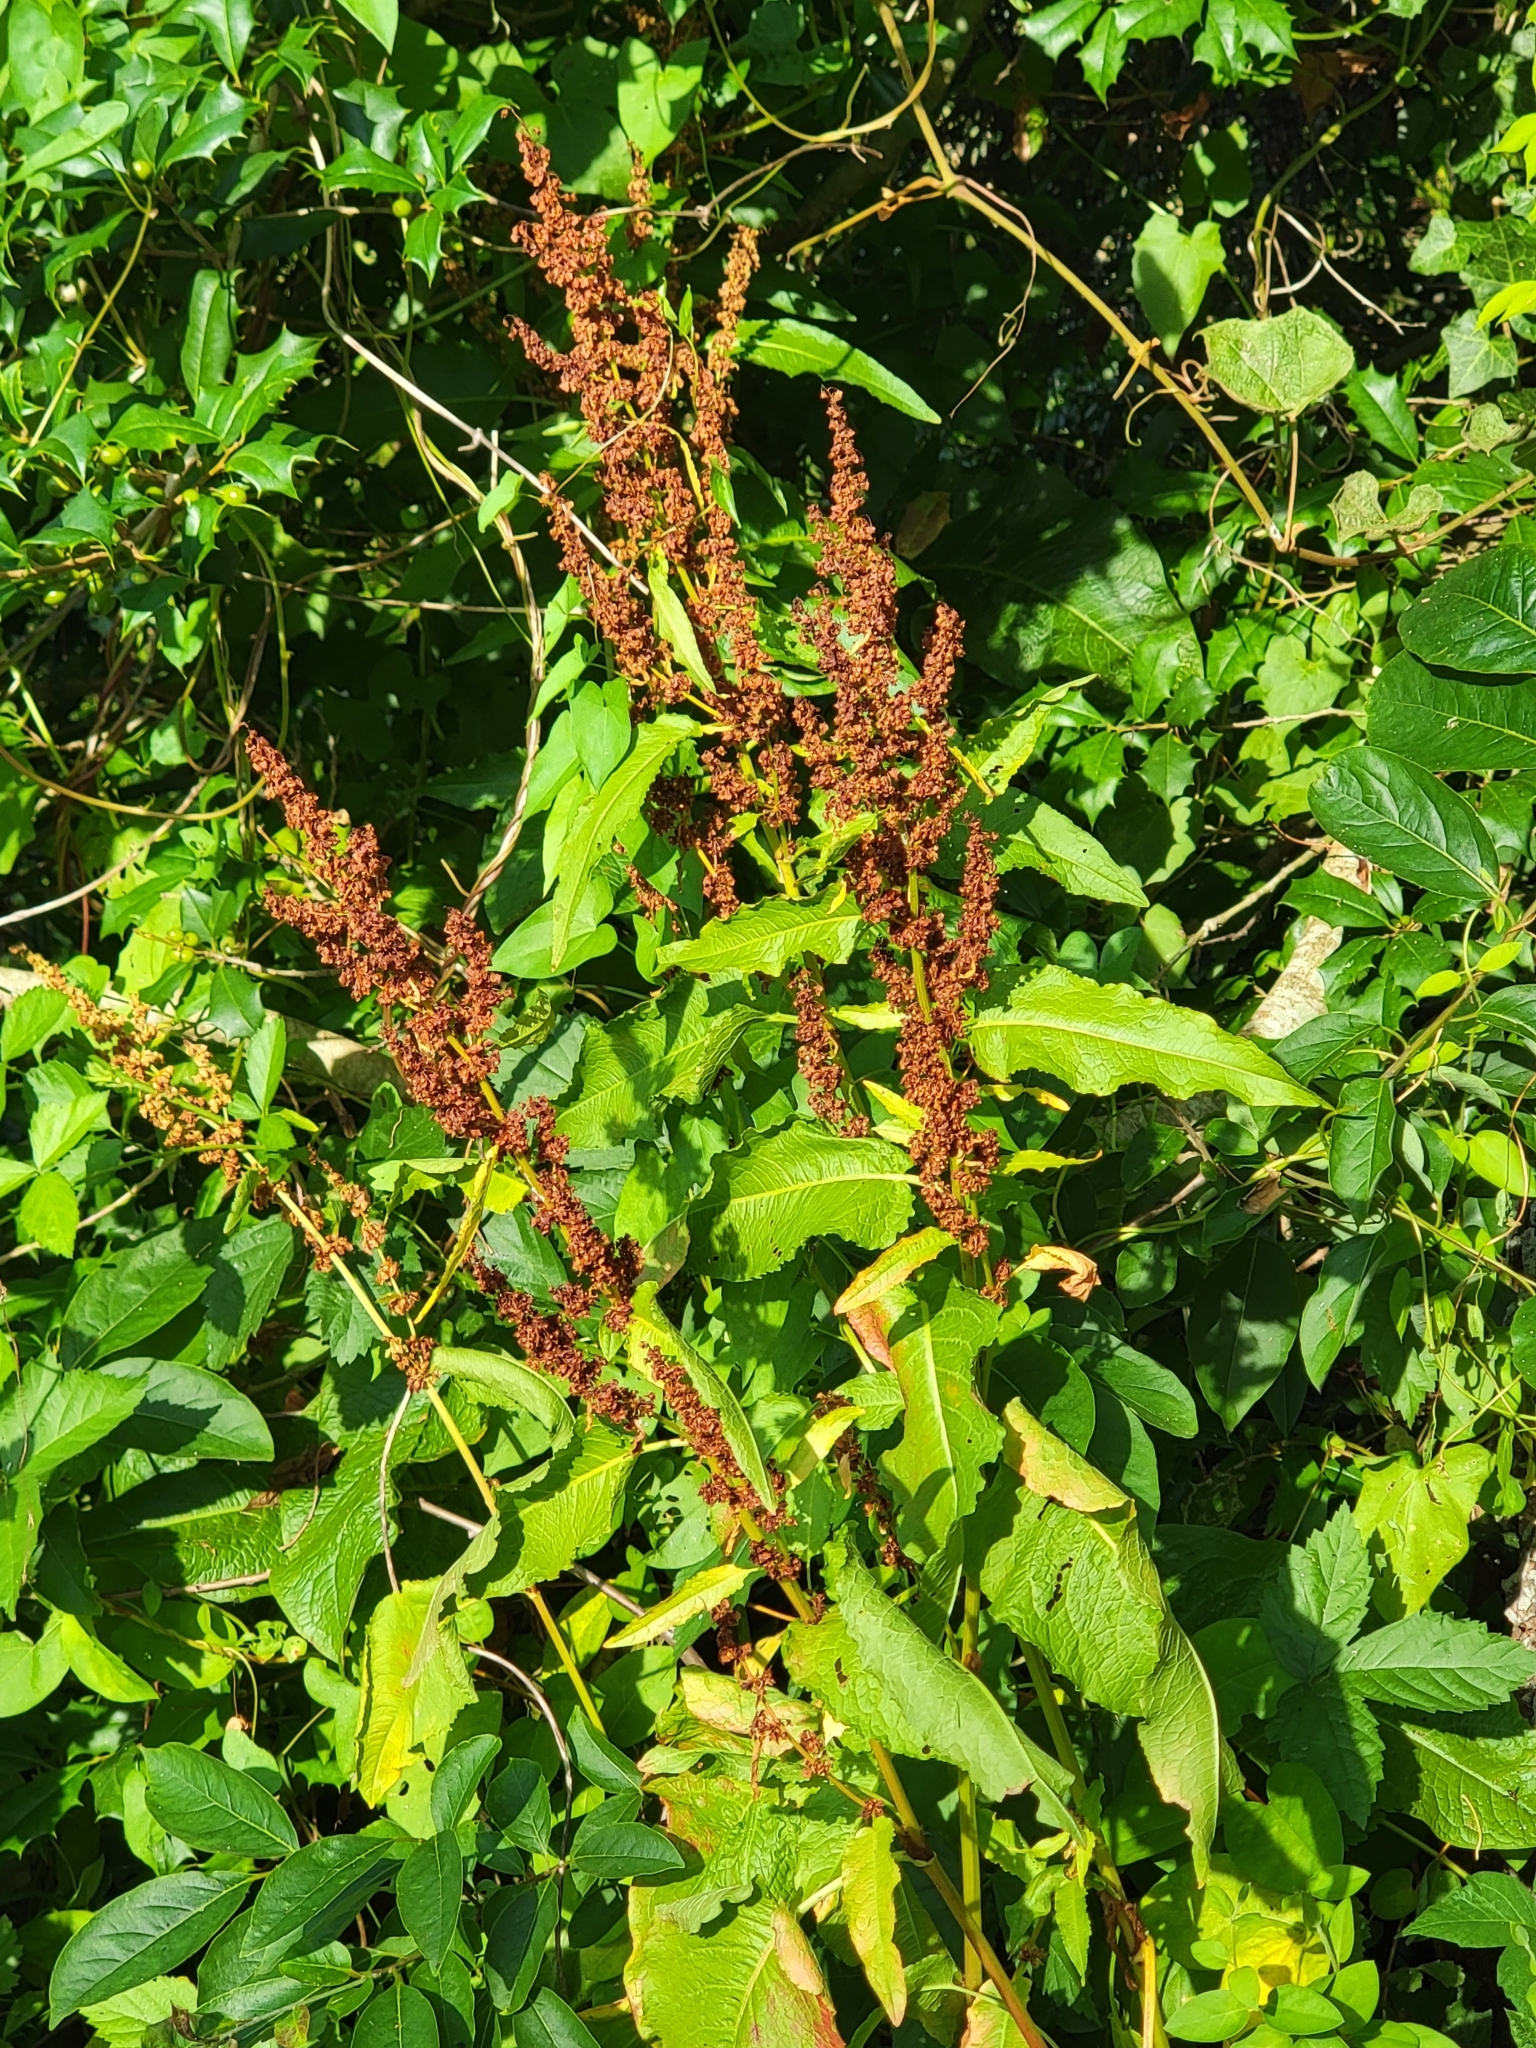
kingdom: Plantae
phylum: Tracheophyta
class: Magnoliopsida
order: Caryophyllales
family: Polygonaceae
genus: Rumex
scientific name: Rumex crispus
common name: Curled dock
